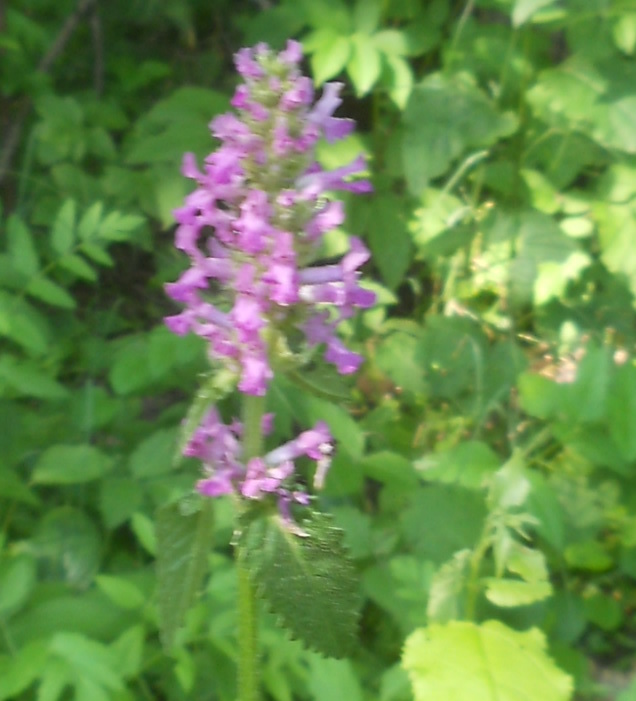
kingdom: Plantae
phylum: Tracheophyta
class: Magnoliopsida
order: Lamiales
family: Lamiaceae
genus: Betonica
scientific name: Betonica officinalis
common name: Bishop's-wort
